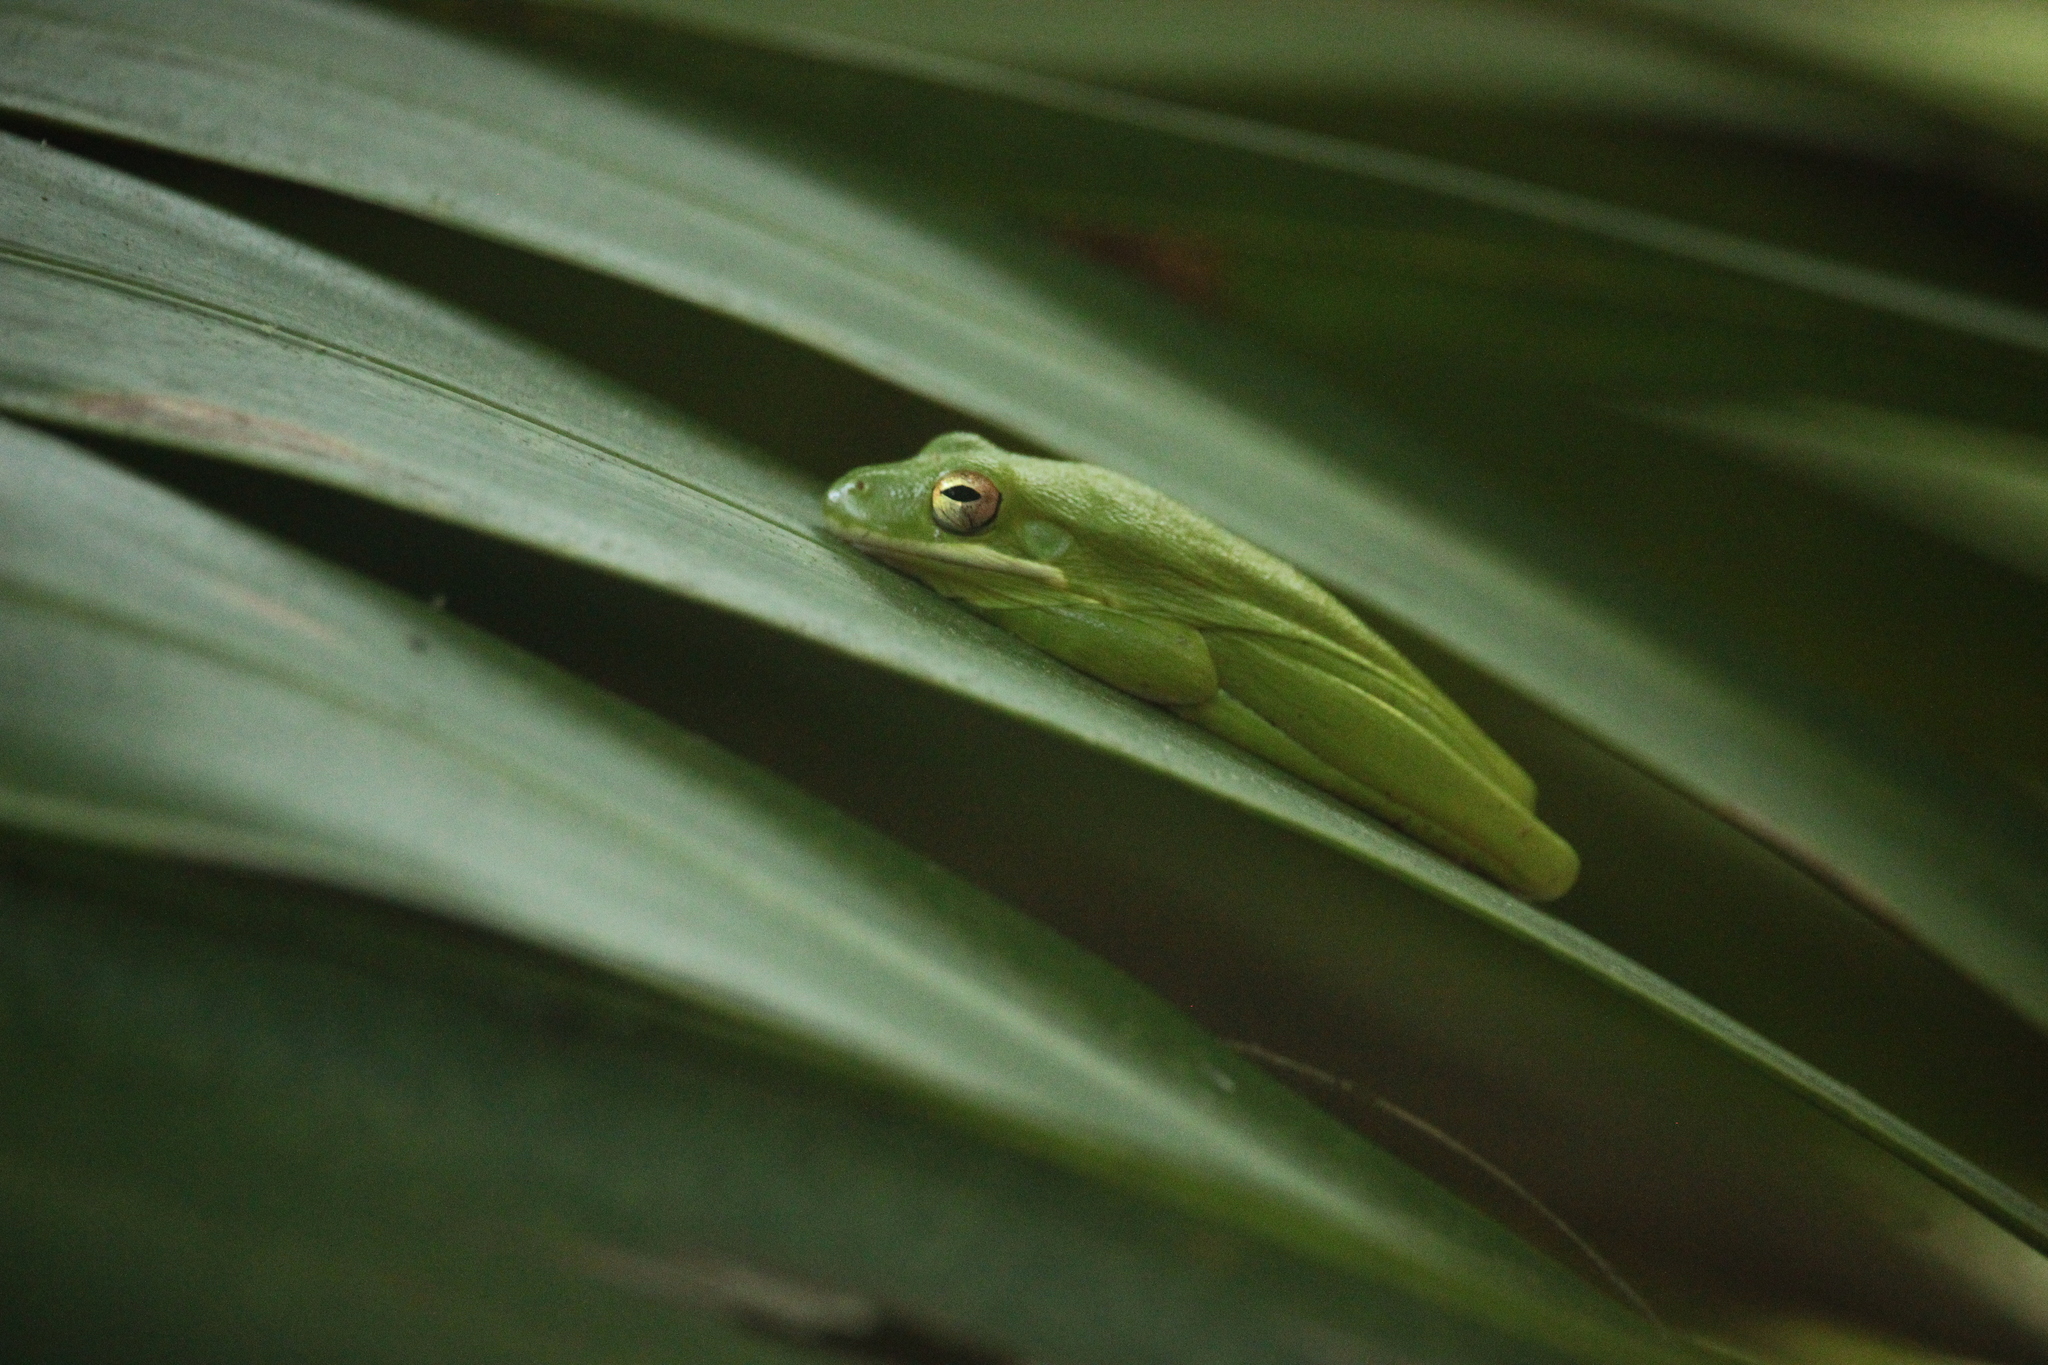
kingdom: Animalia
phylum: Chordata
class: Amphibia
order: Anura
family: Hylidae
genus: Dryophytes
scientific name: Dryophytes cinereus
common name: Green treefrog
